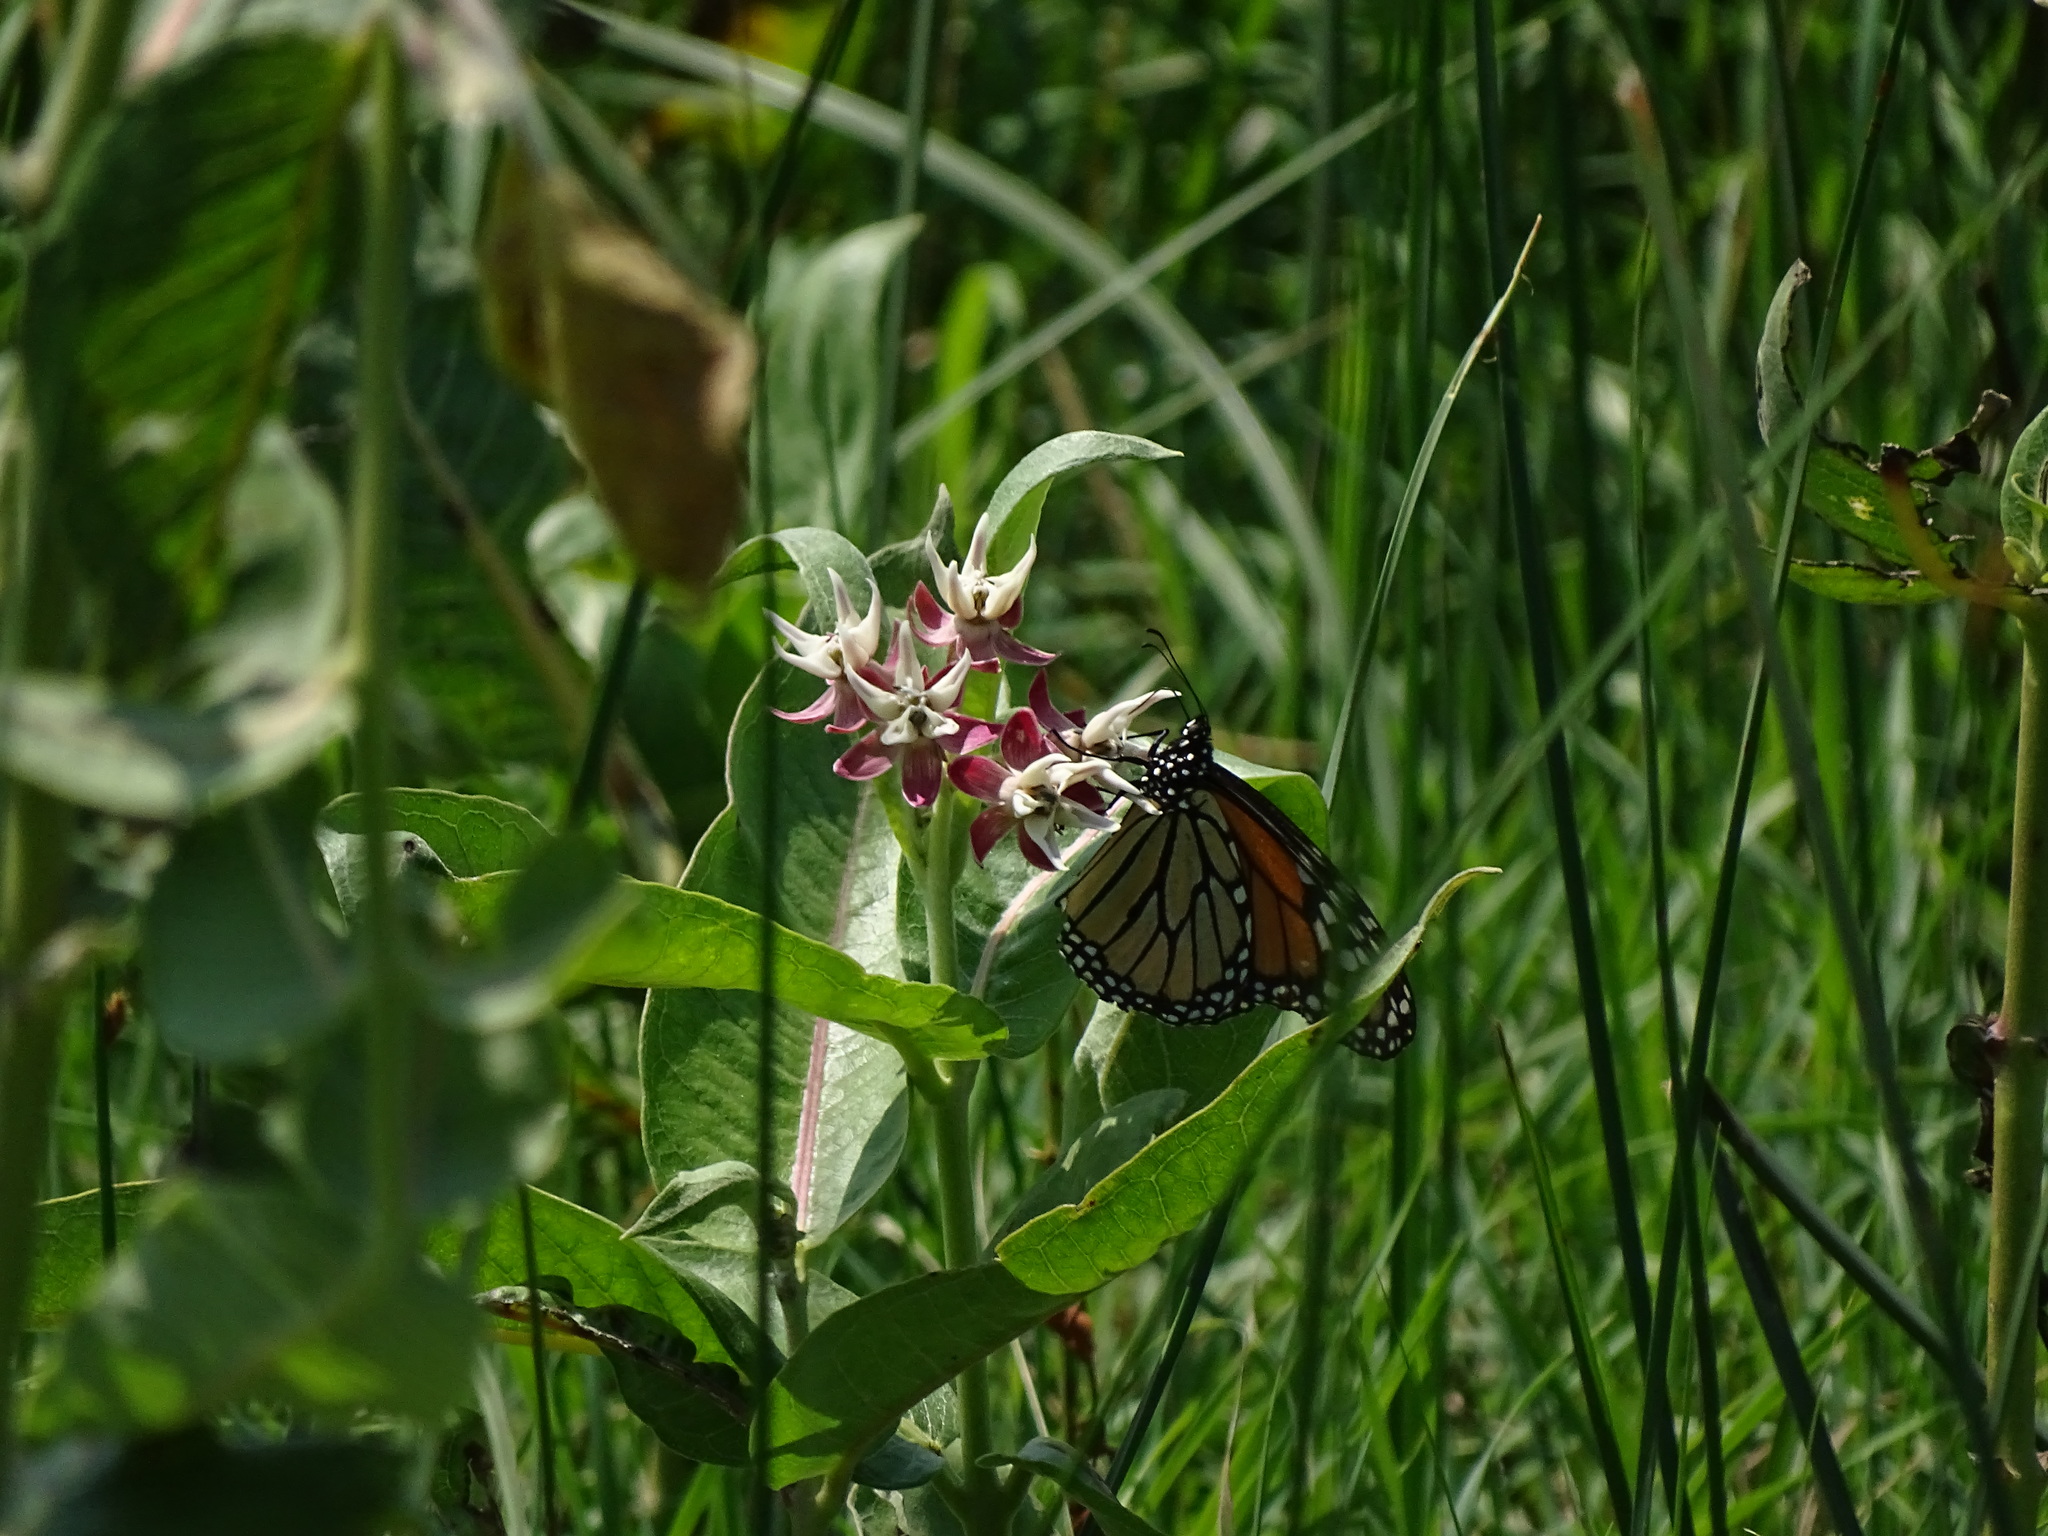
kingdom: Animalia
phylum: Arthropoda
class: Insecta
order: Lepidoptera
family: Nymphalidae
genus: Danaus
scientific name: Danaus plexippus
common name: Monarch
